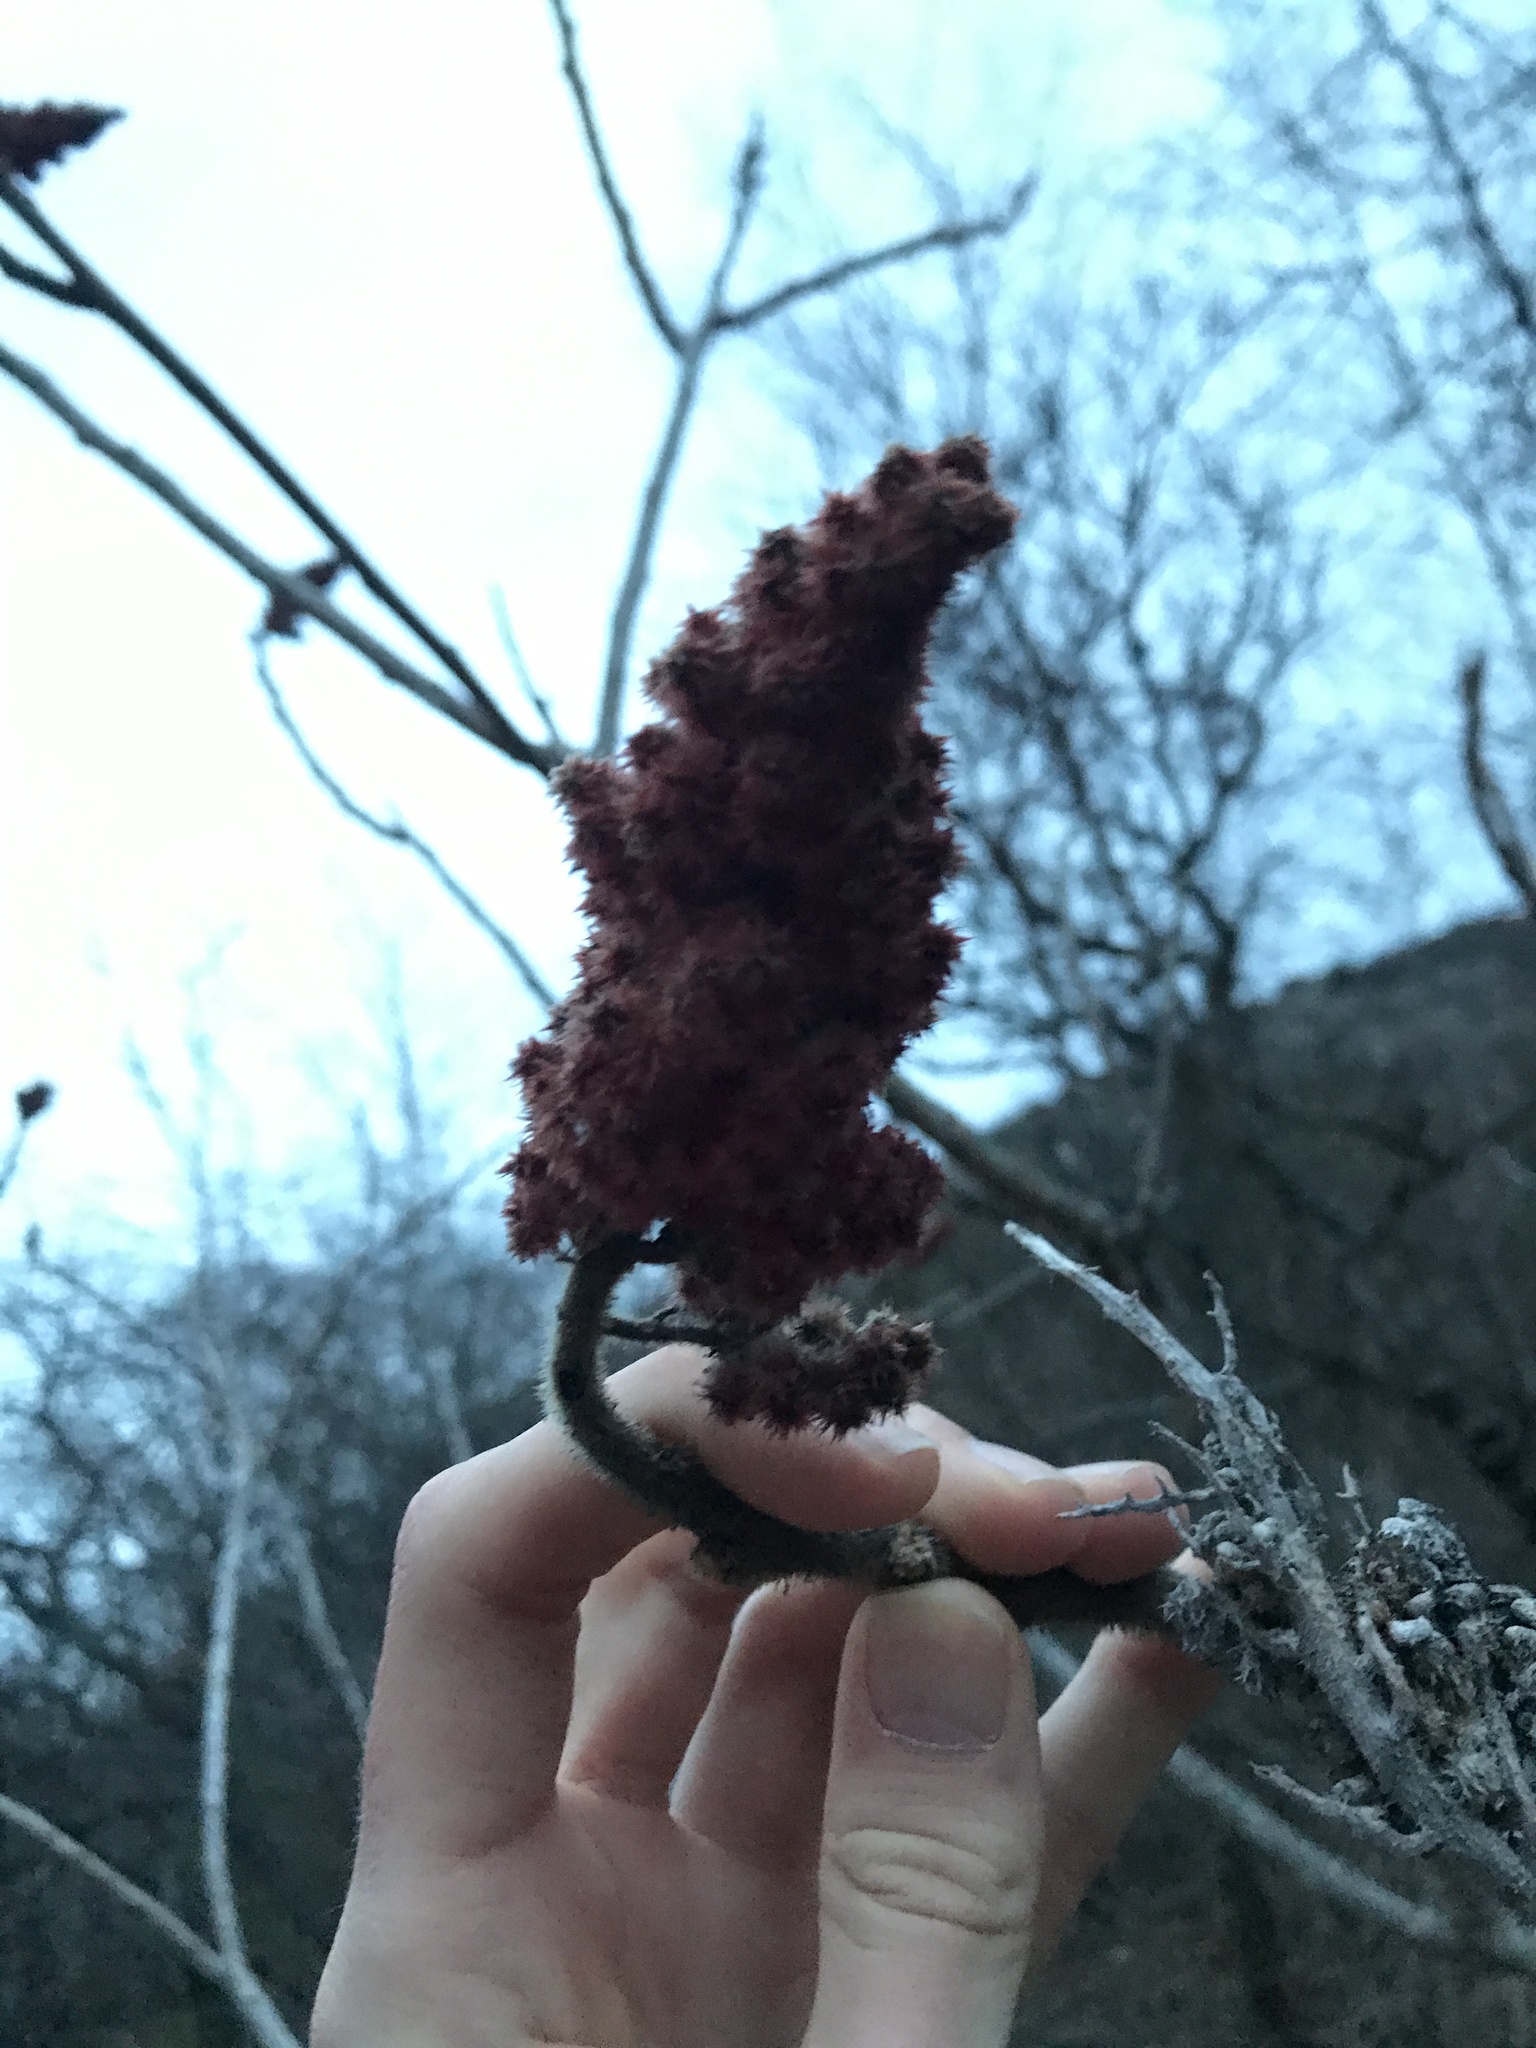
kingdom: Plantae
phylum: Tracheophyta
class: Magnoliopsida
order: Sapindales
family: Anacardiaceae
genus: Rhus
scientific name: Rhus typhina
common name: Staghorn sumac
